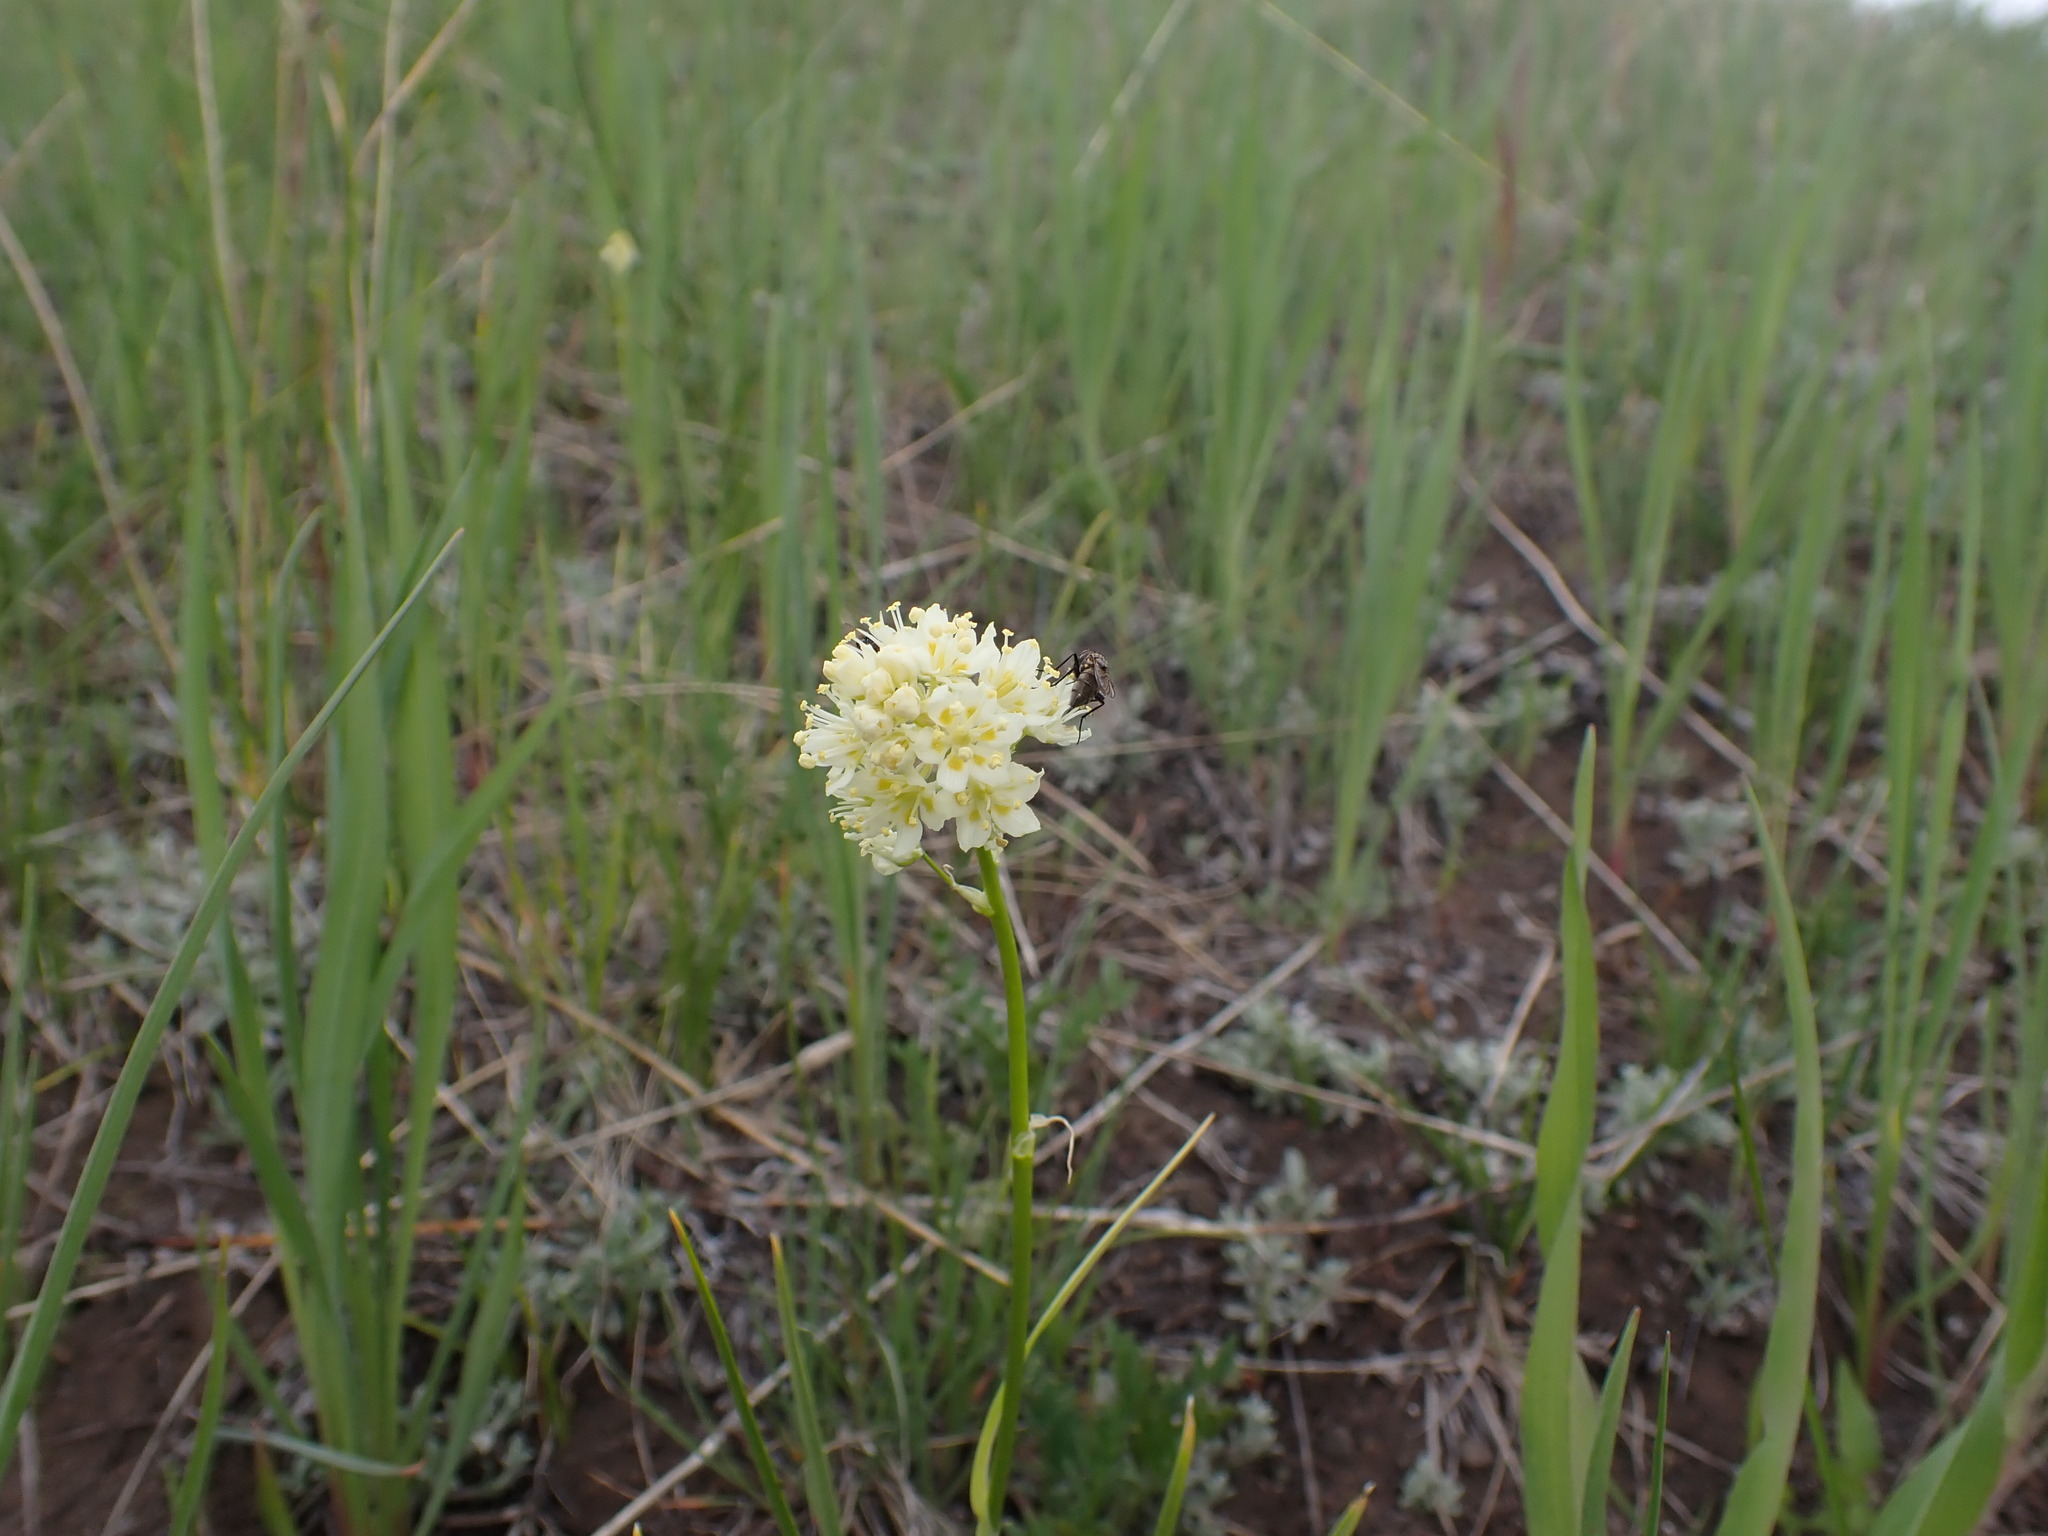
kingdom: Plantae
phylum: Tracheophyta
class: Liliopsida
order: Liliales
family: Melanthiaceae
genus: Toxicoscordion
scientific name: Toxicoscordion venenosum
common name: Meadow death camas
